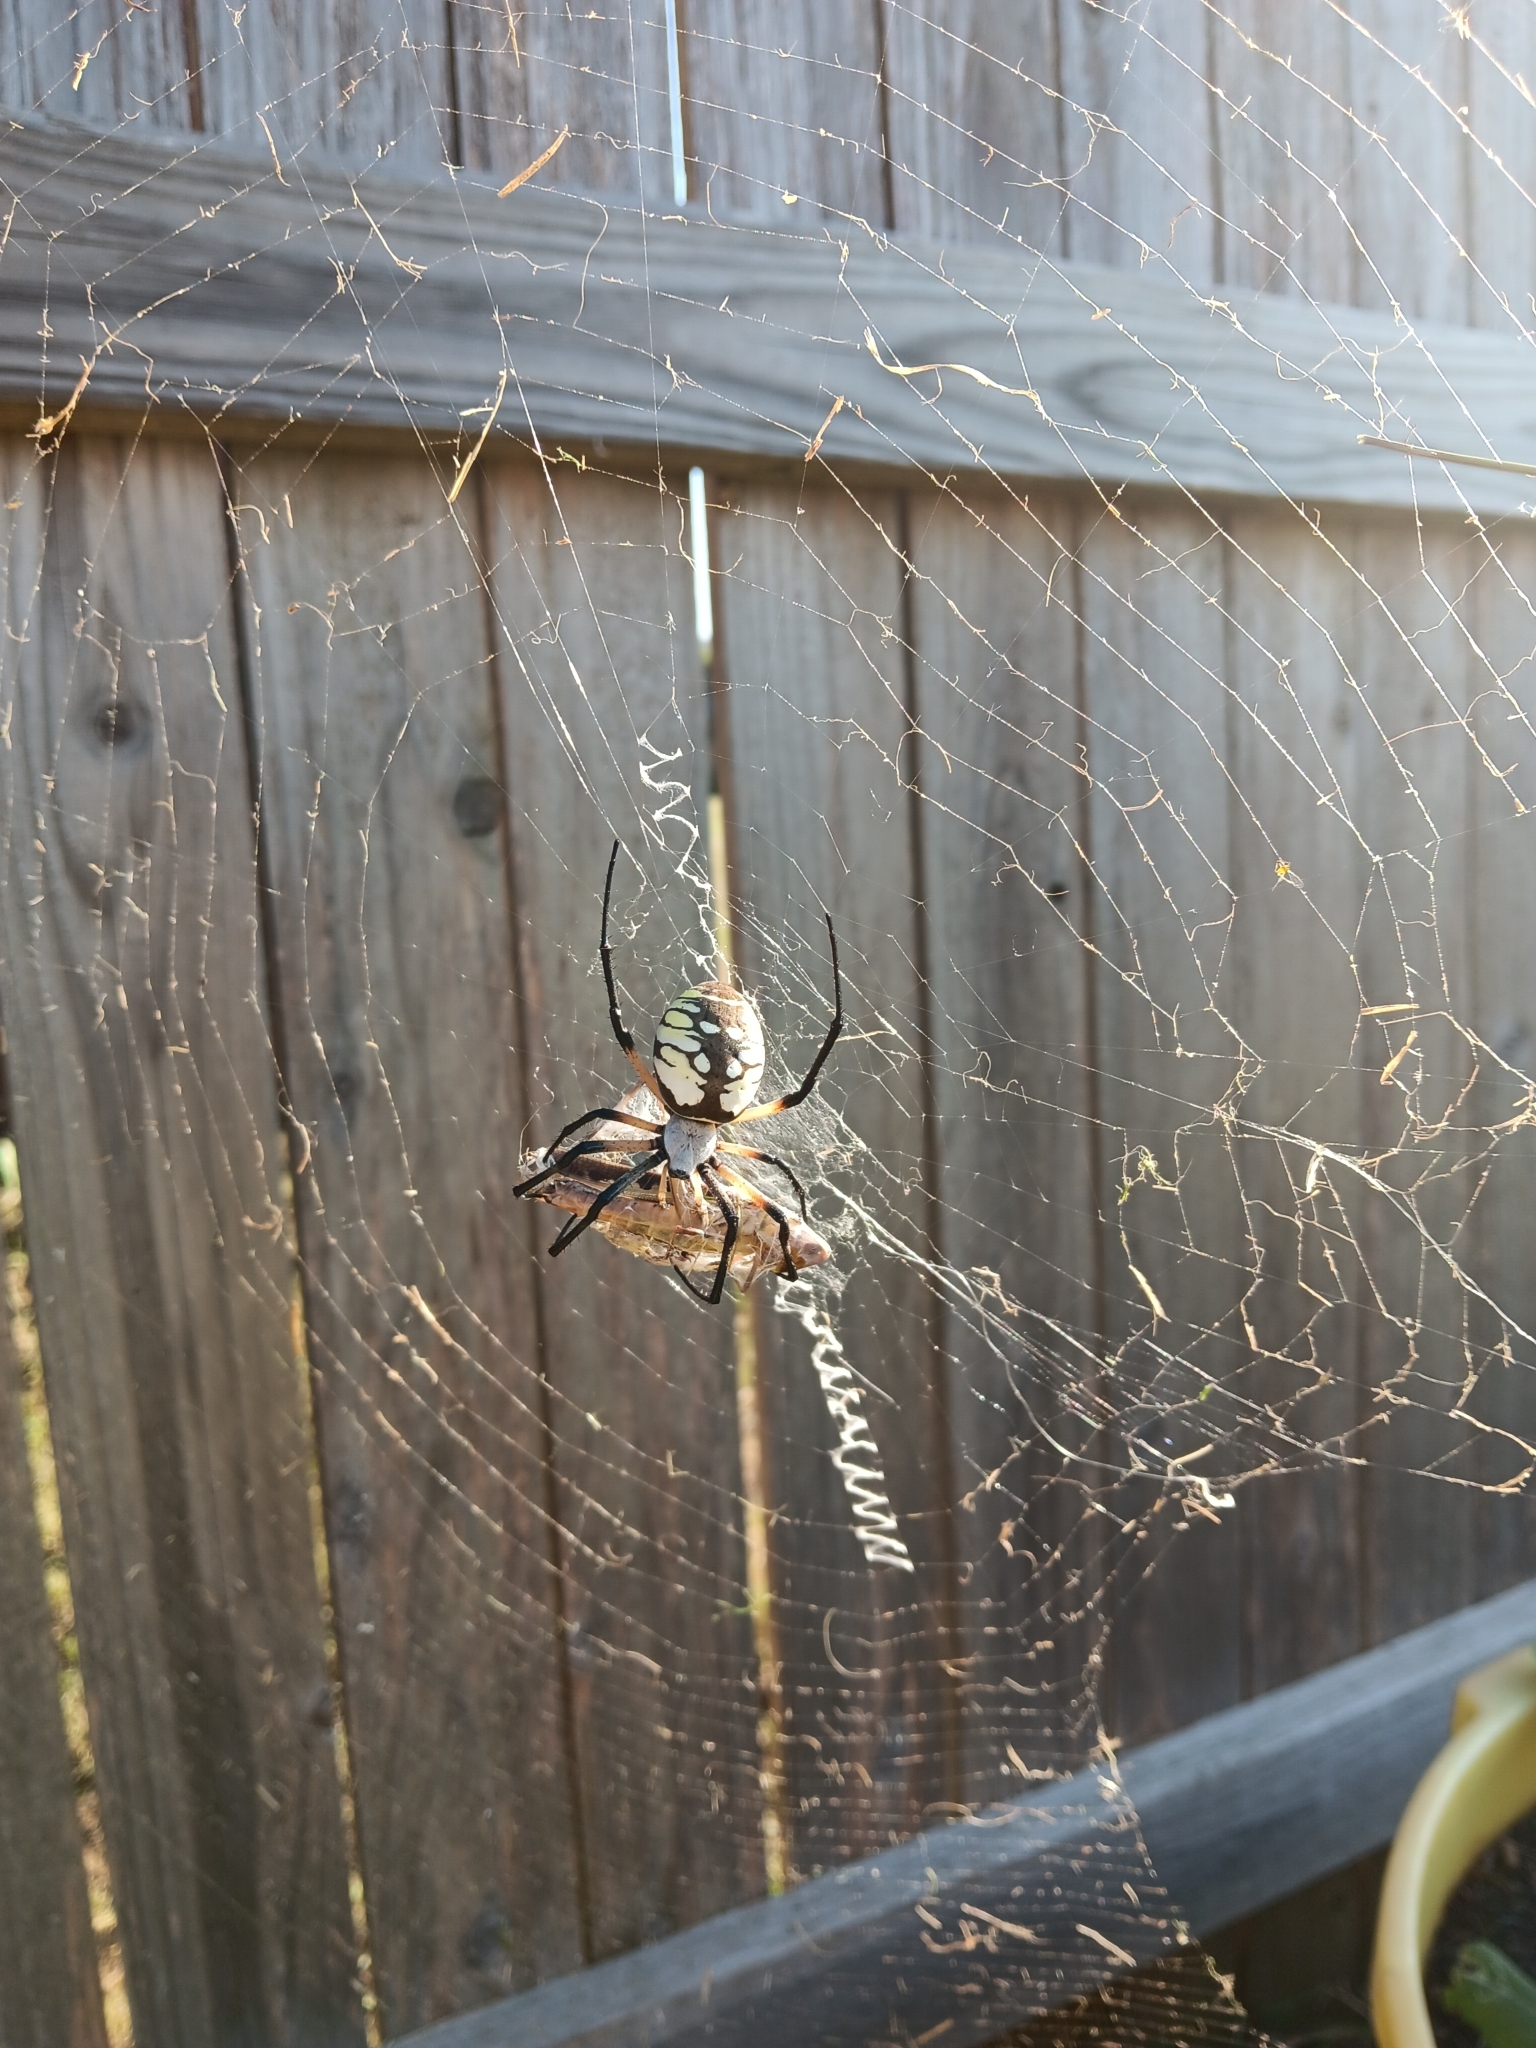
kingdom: Animalia
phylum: Arthropoda
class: Arachnida
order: Araneae
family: Araneidae
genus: Argiope
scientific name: Argiope aurantia
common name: Orb weavers
